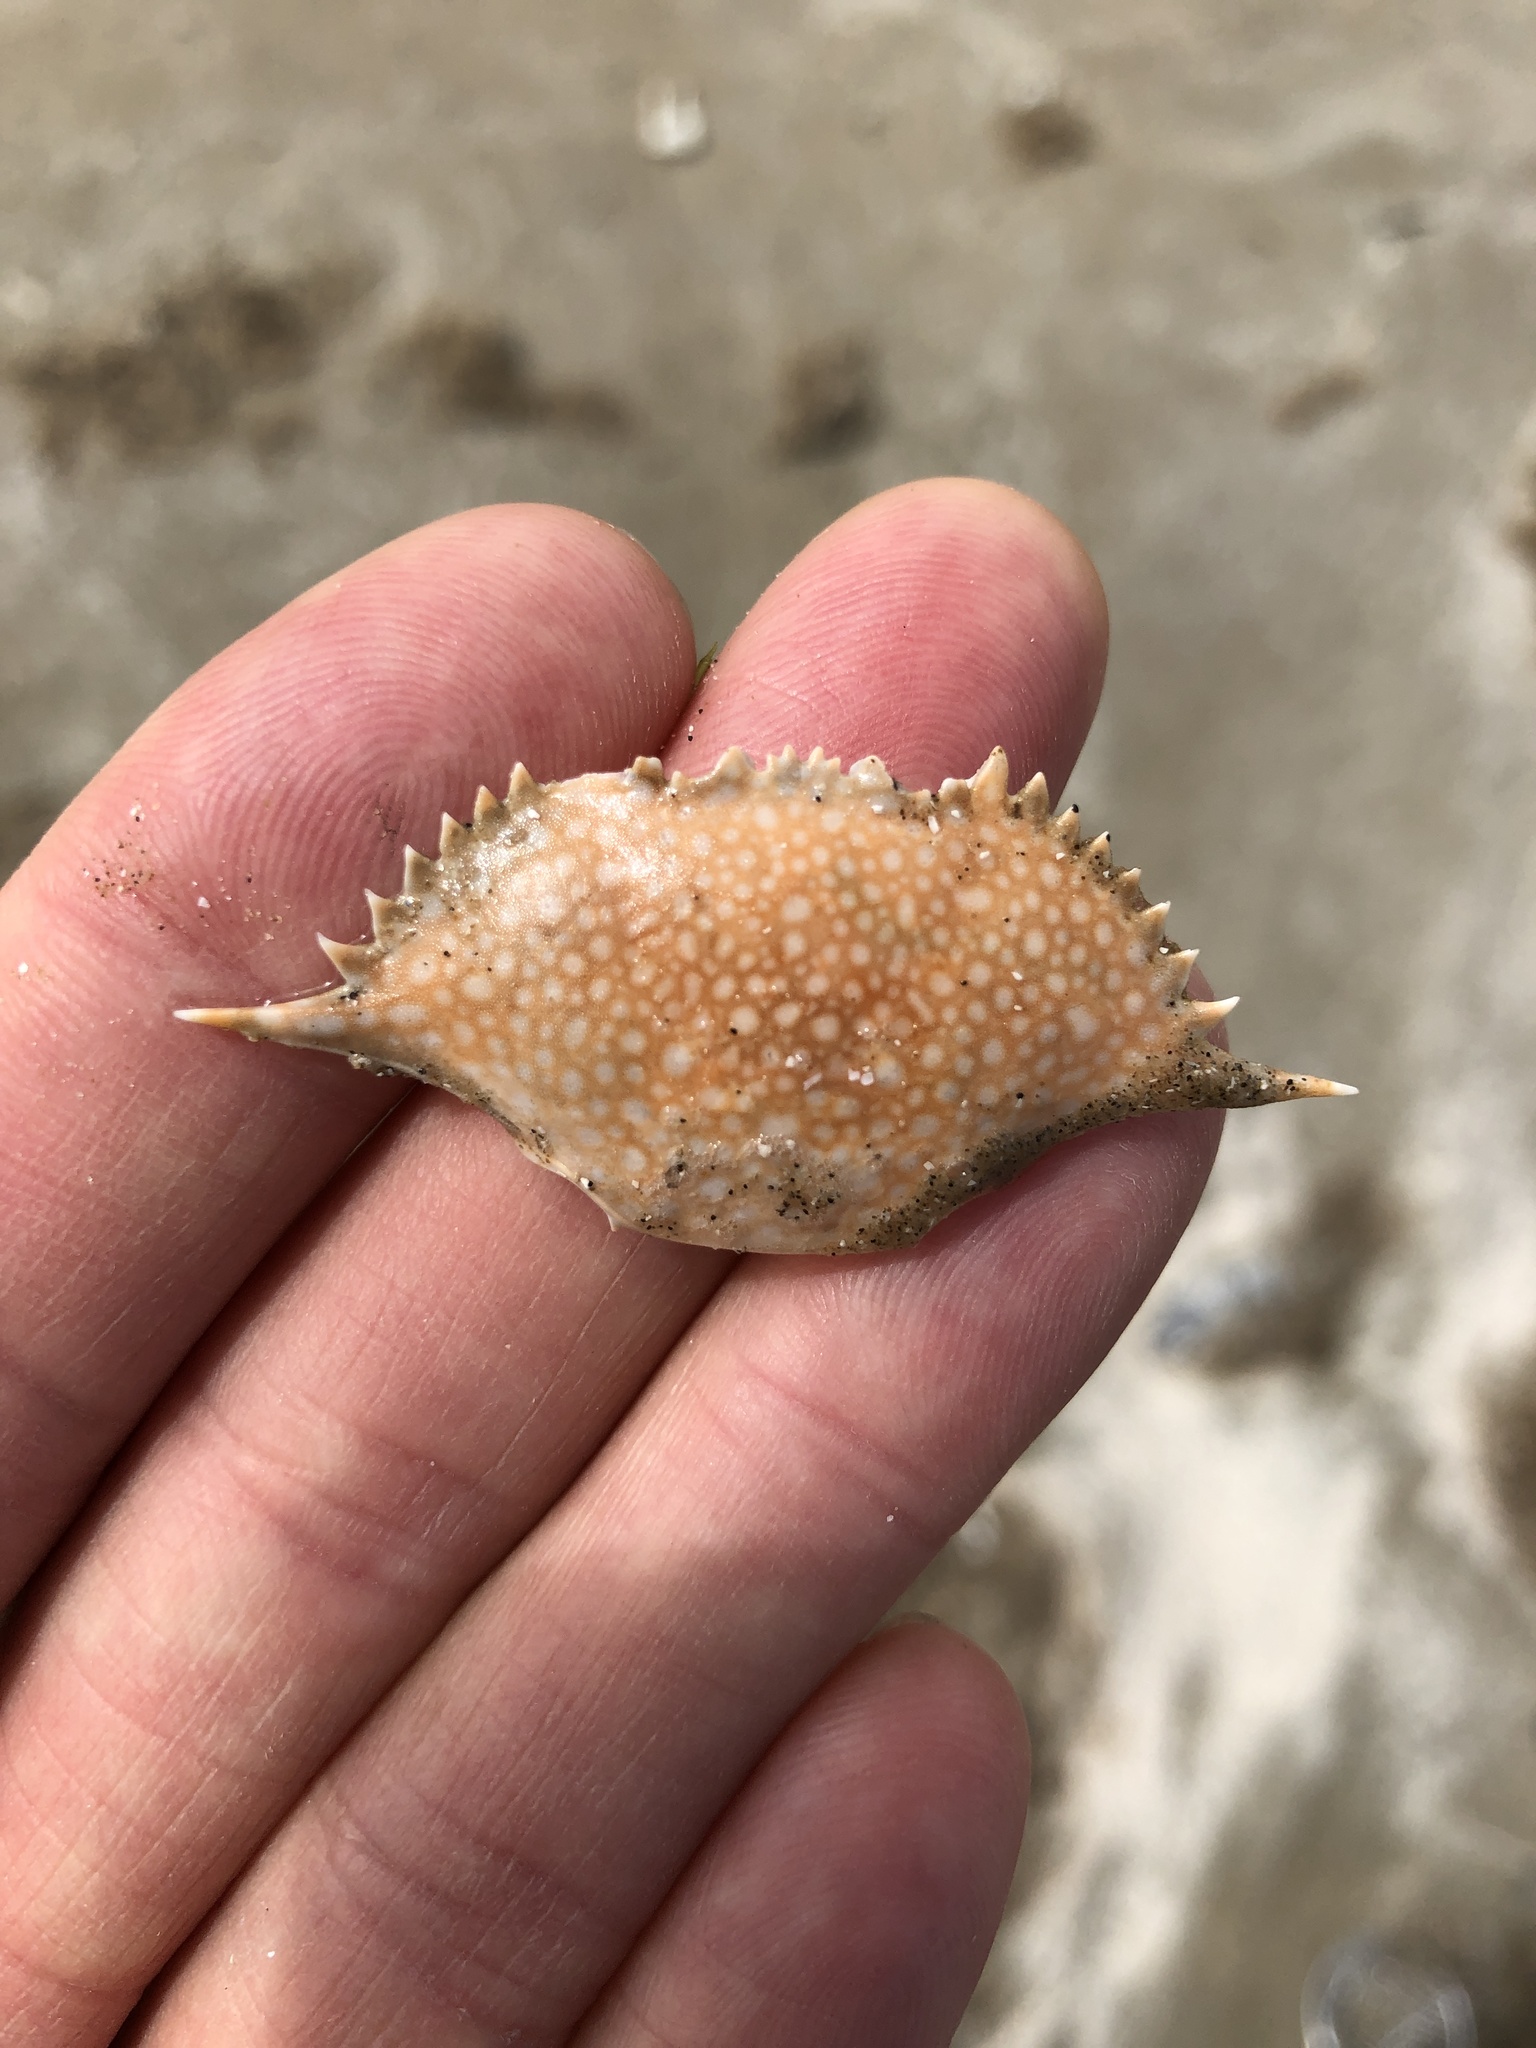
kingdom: Animalia
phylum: Arthropoda
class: Malacostraca
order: Decapoda
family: Portunidae
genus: Arenaeus
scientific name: Arenaeus cribrarius
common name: Speckled crab
